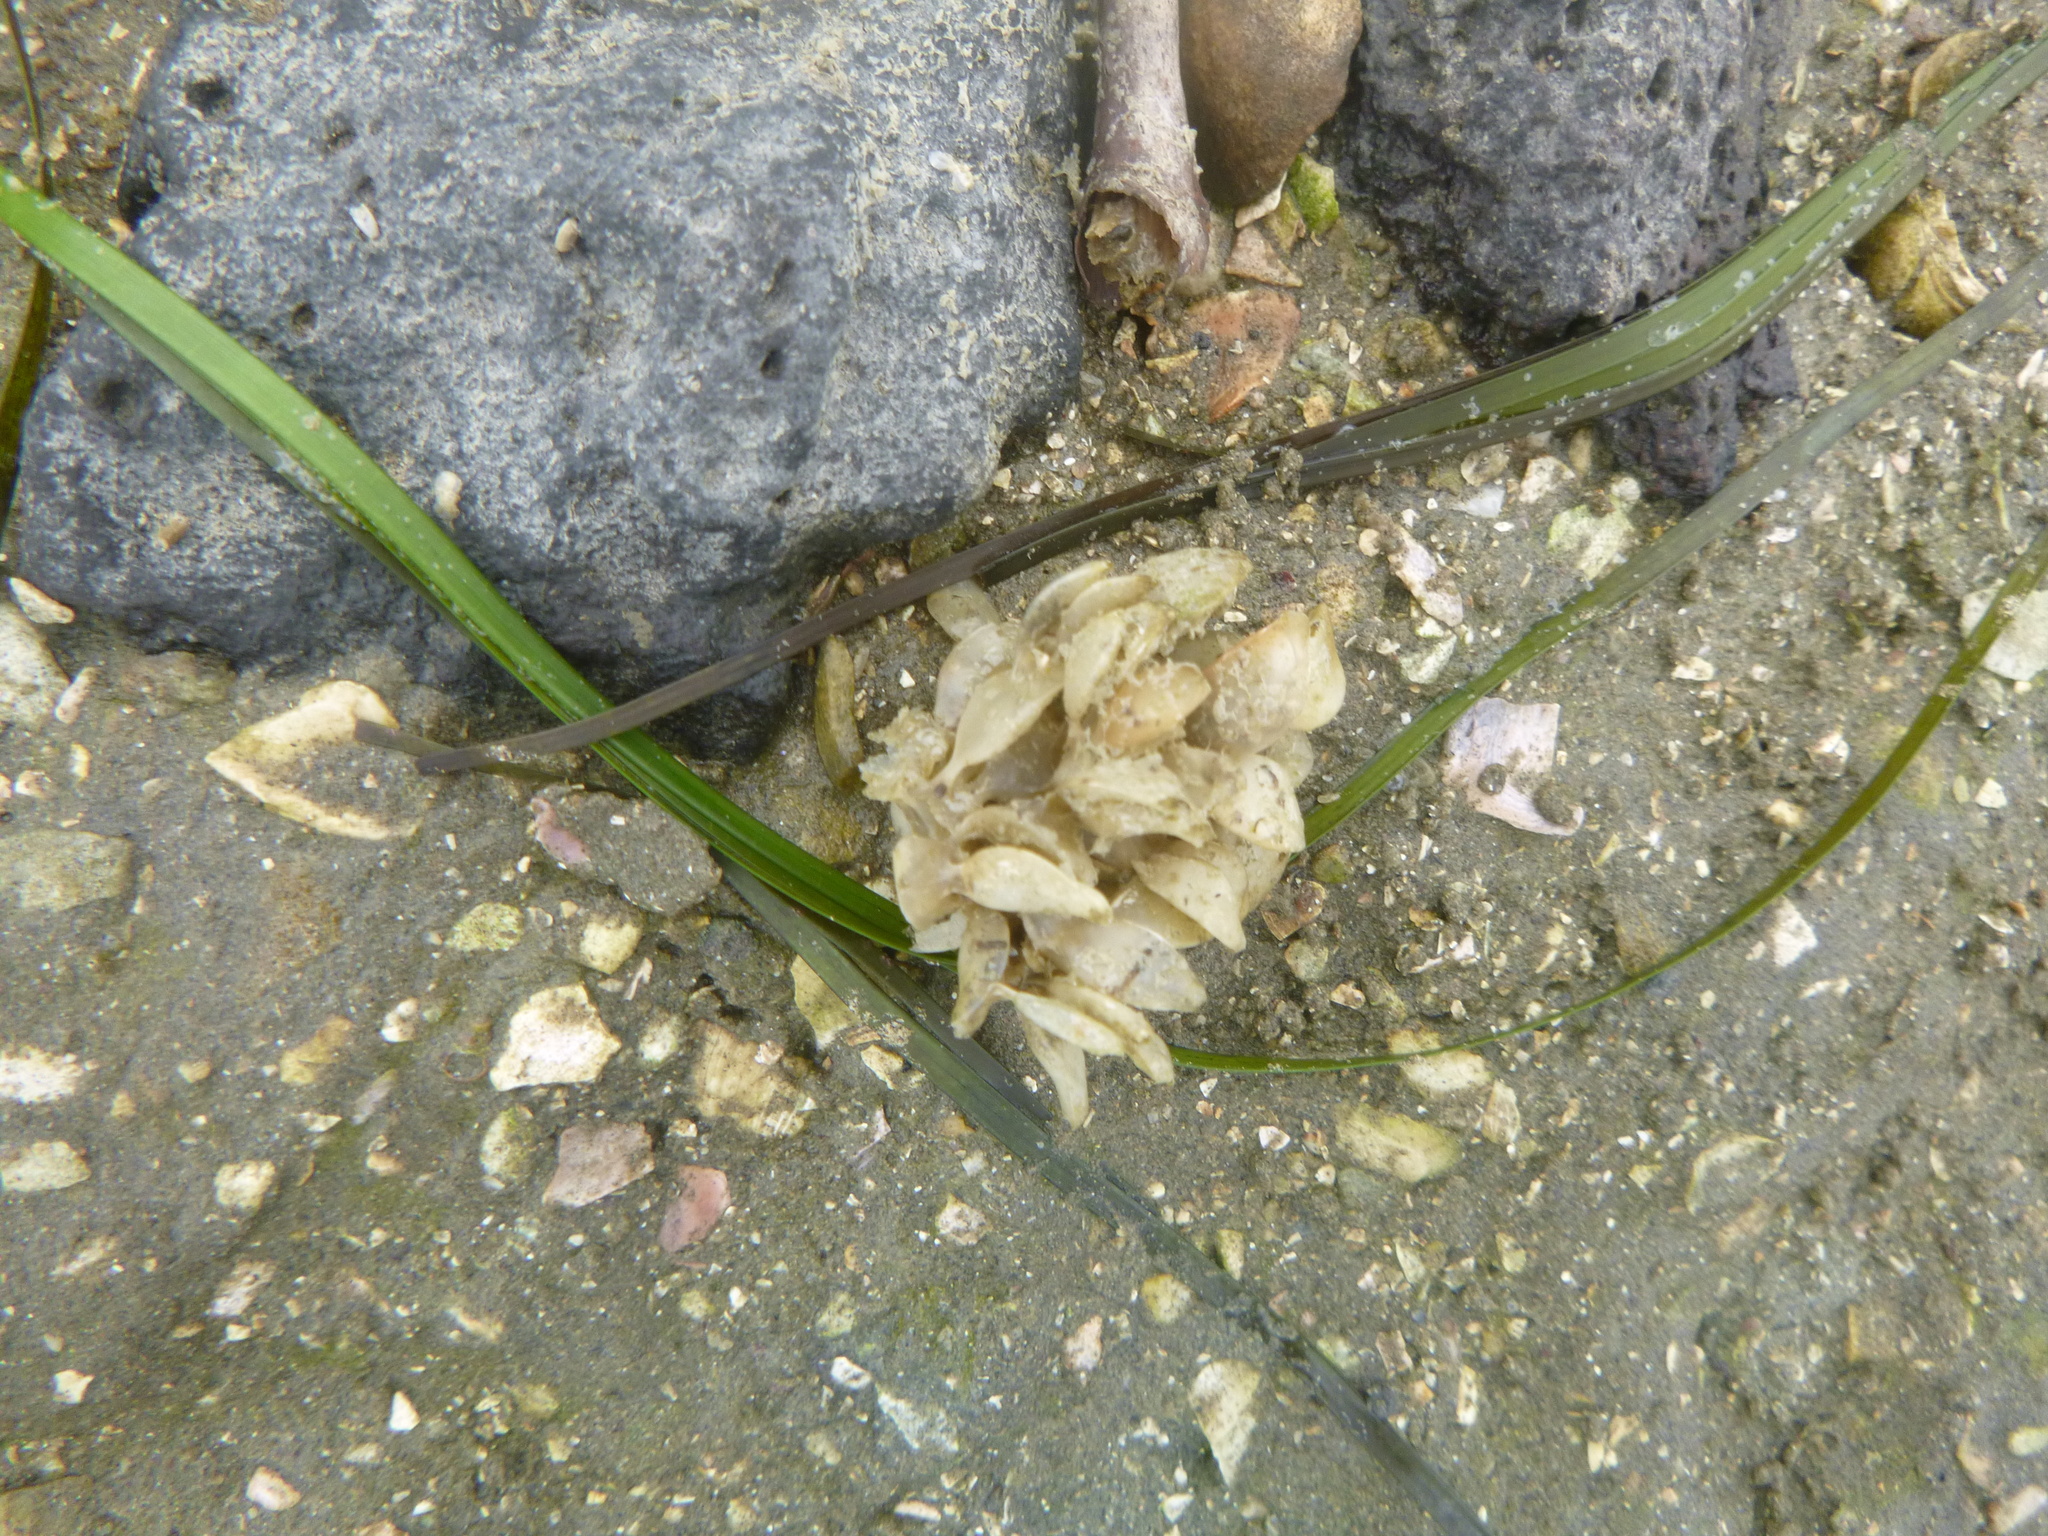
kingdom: Animalia
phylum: Mollusca
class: Gastropoda
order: Neogastropoda
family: Cominellidae
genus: Cominella
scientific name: Cominella adspersa
